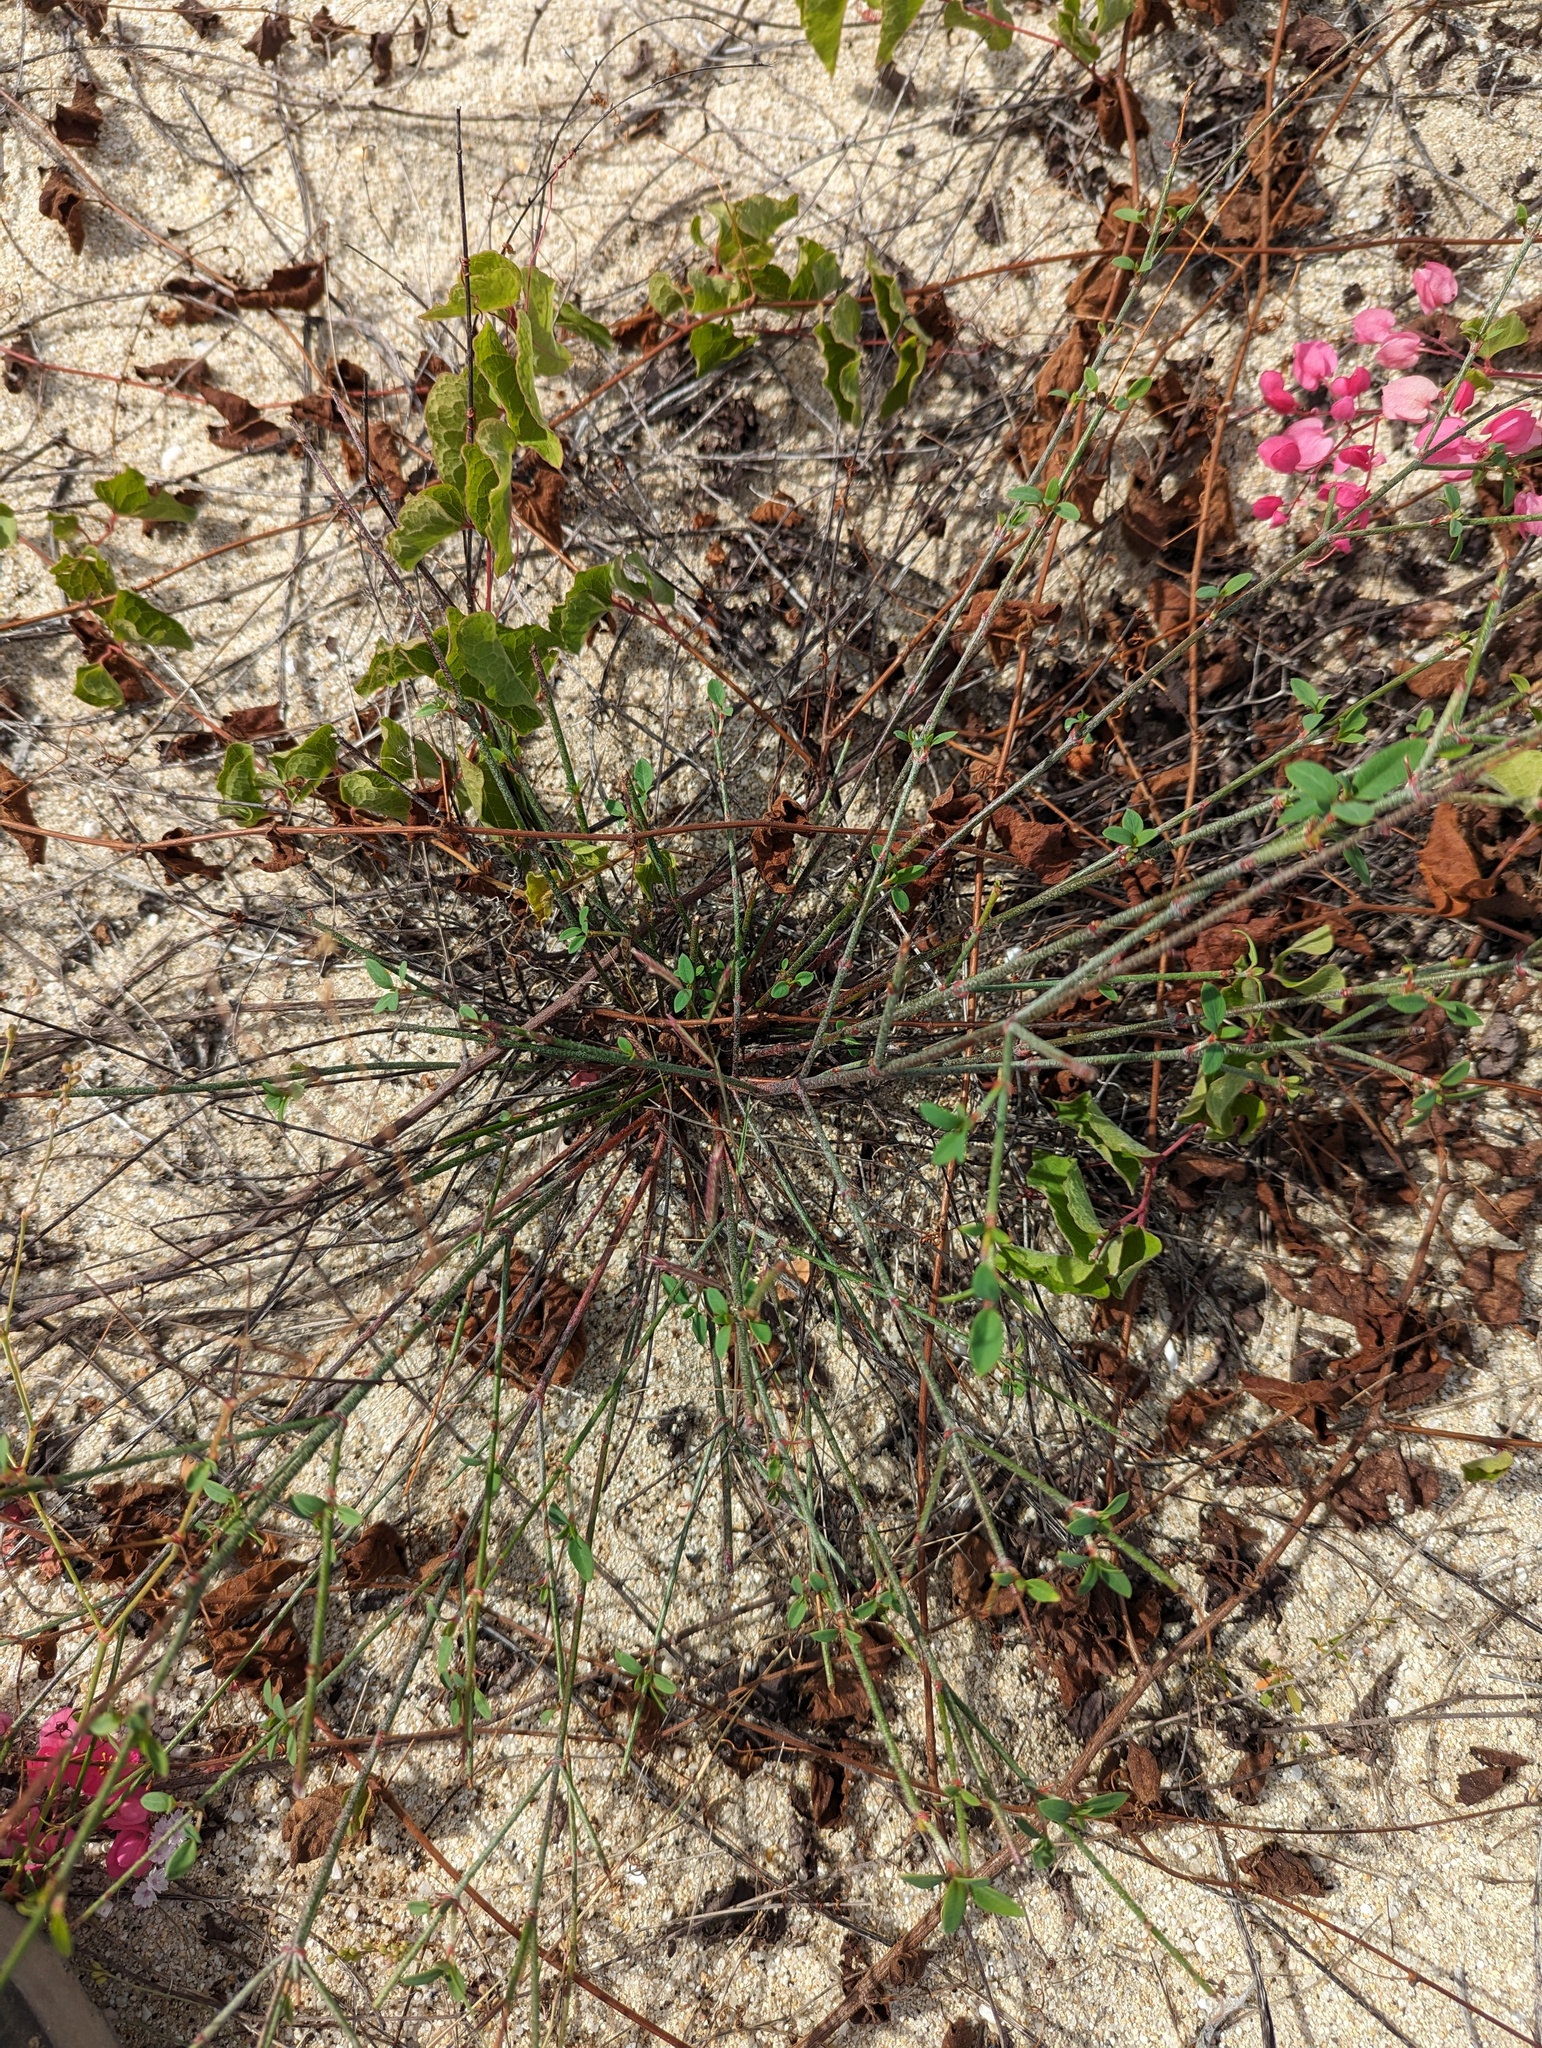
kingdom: Plantae
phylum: Tracheophyta
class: Magnoliopsida
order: Malpighiales
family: Malpighiaceae
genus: Galphimia
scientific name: Galphimia angustifolia
